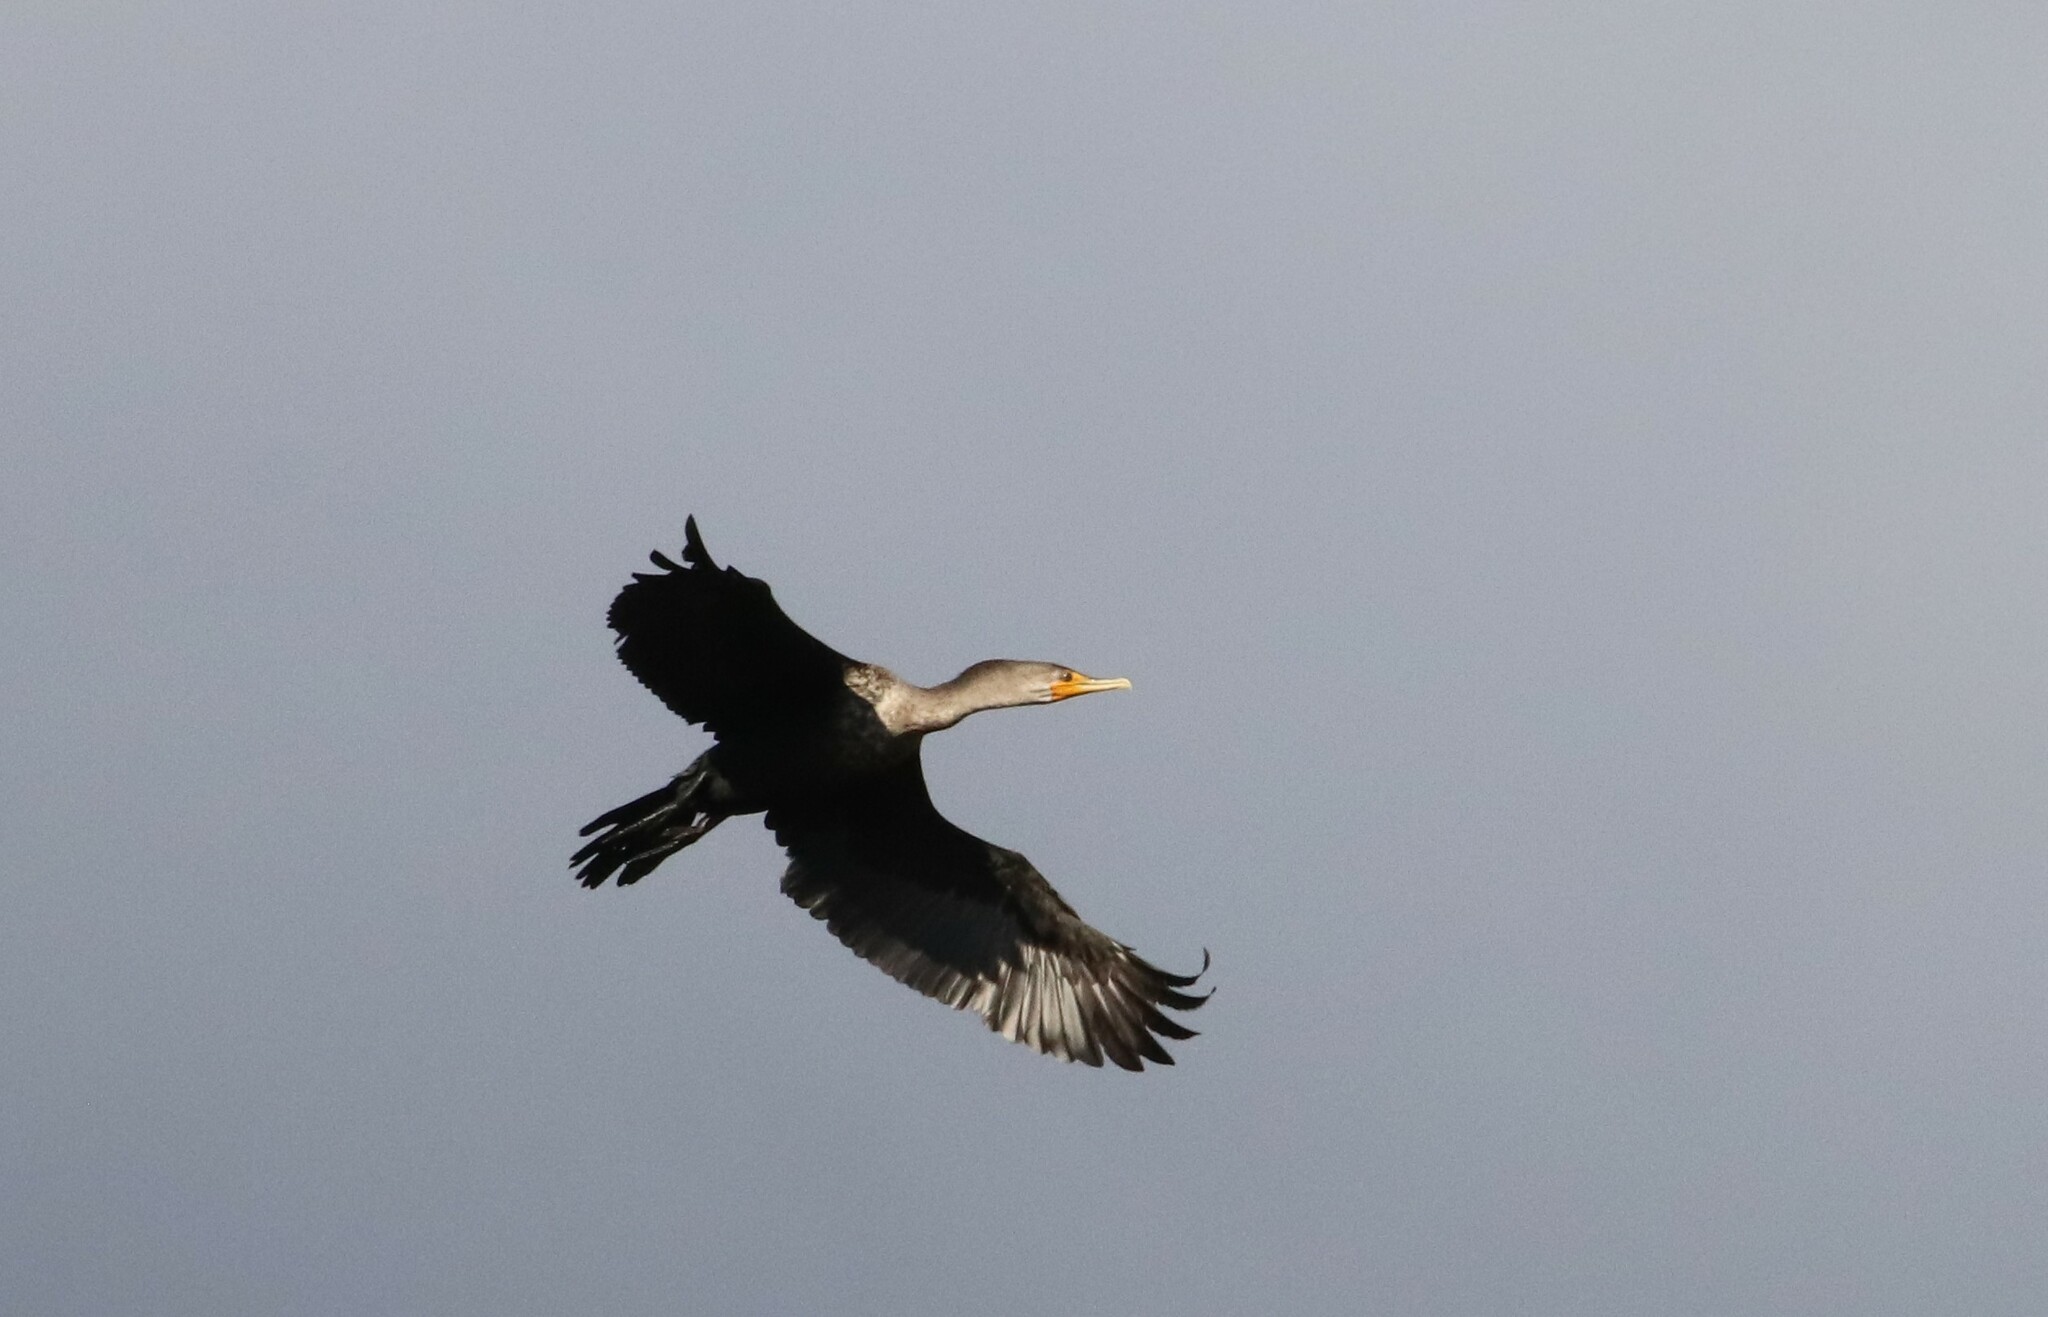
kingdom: Animalia
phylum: Chordata
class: Aves
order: Suliformes
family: Phalacrocoracidae
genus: Phalacrocorax
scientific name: Phalacrocorax auritus
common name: Double-crested cormorant
